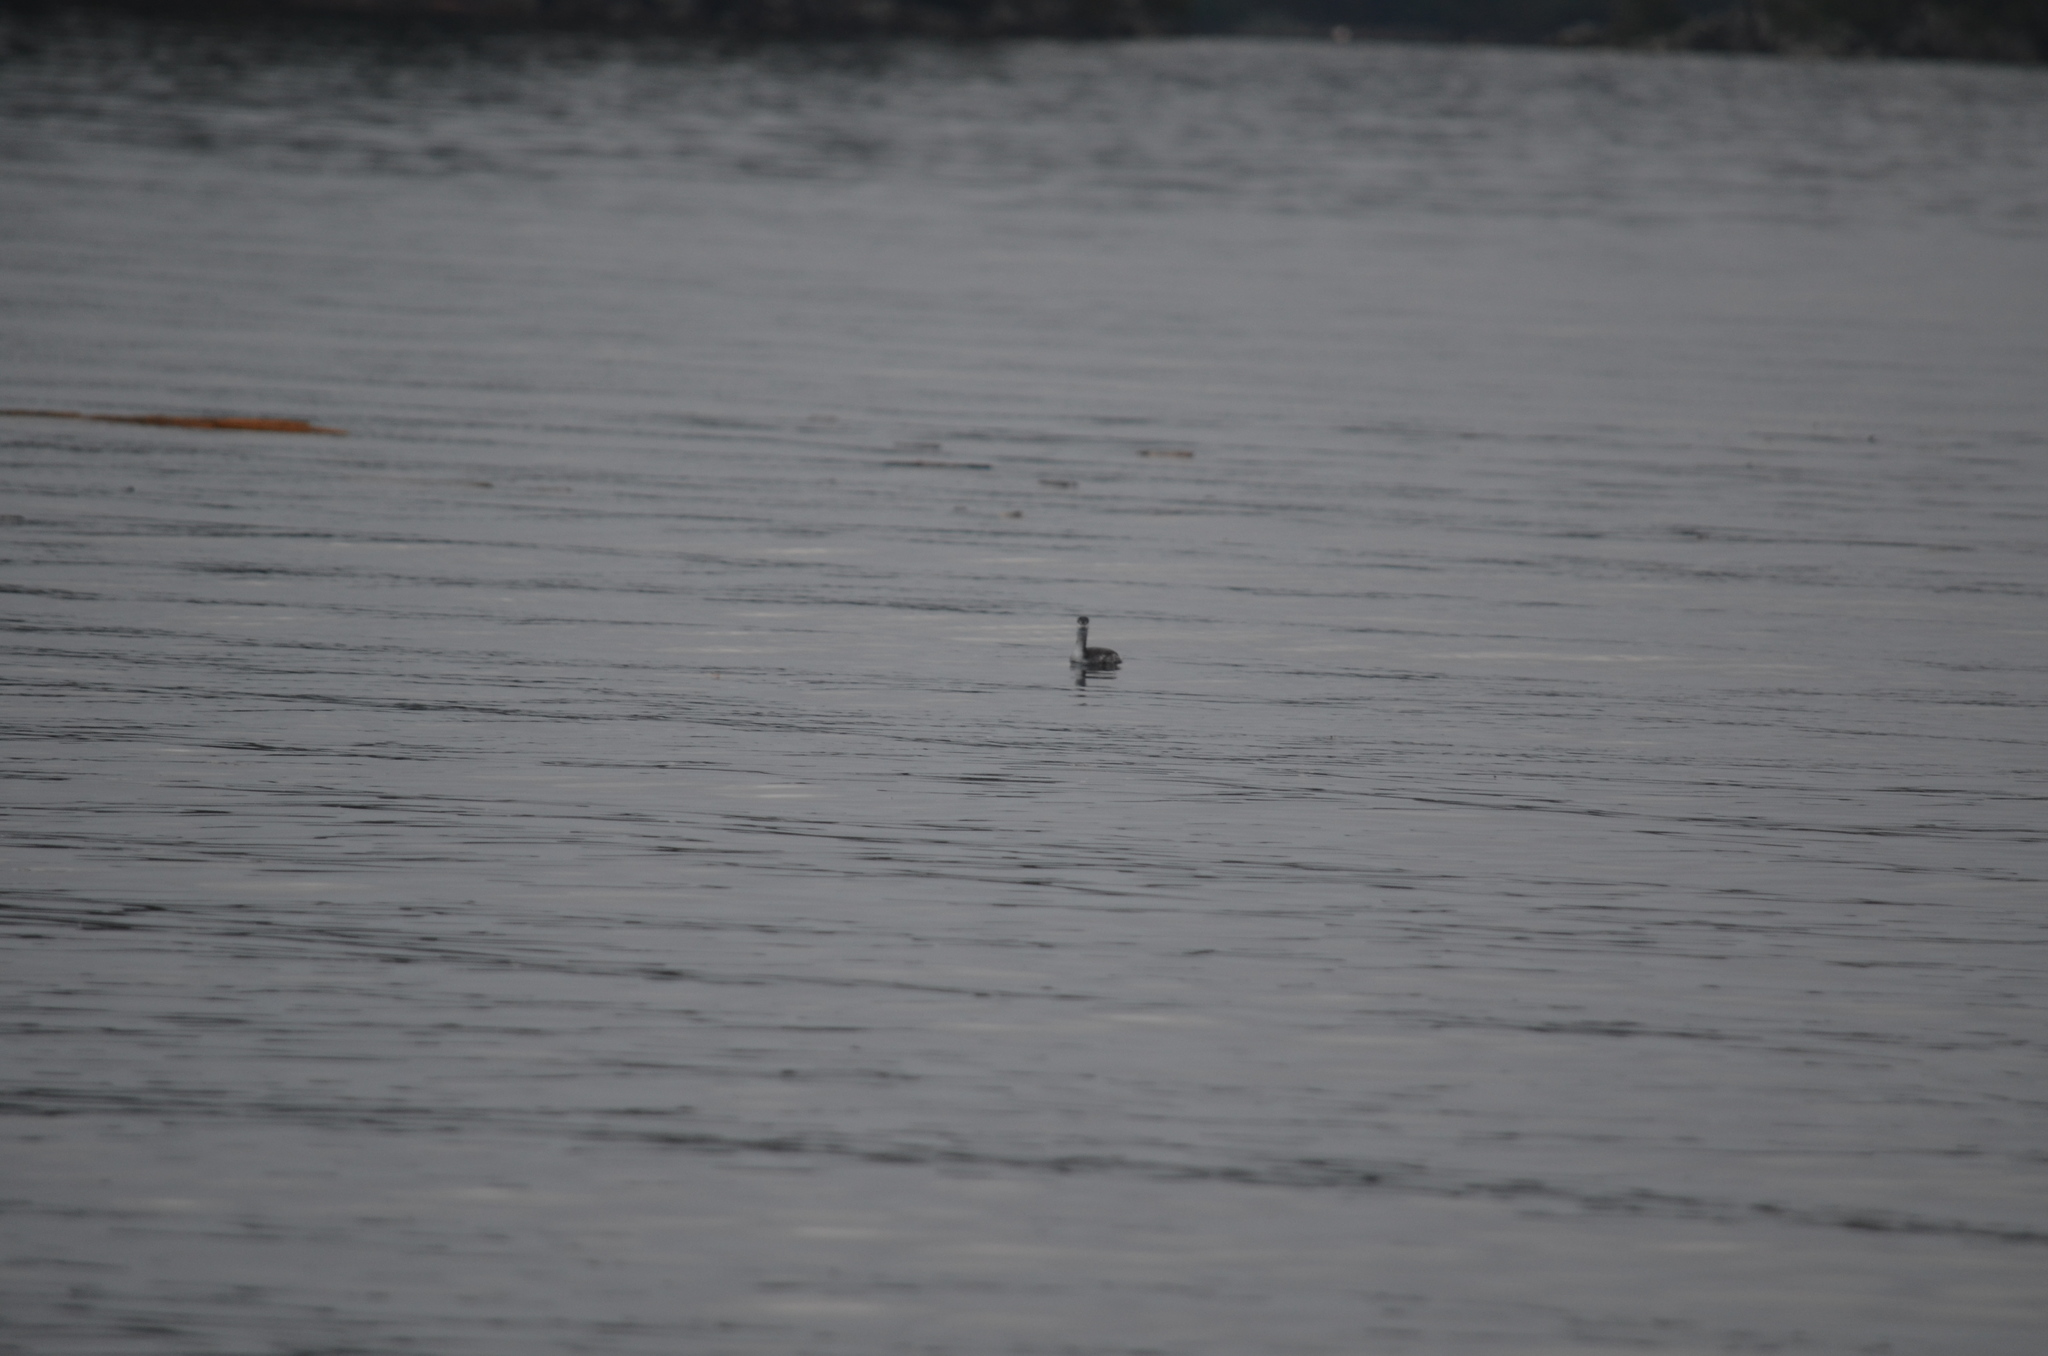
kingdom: Animalia
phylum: Chordata
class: Aves
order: Podicipediformes
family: Podicipedidae
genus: Podiceps
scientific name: Podiceps auritus
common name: Horned grebe
